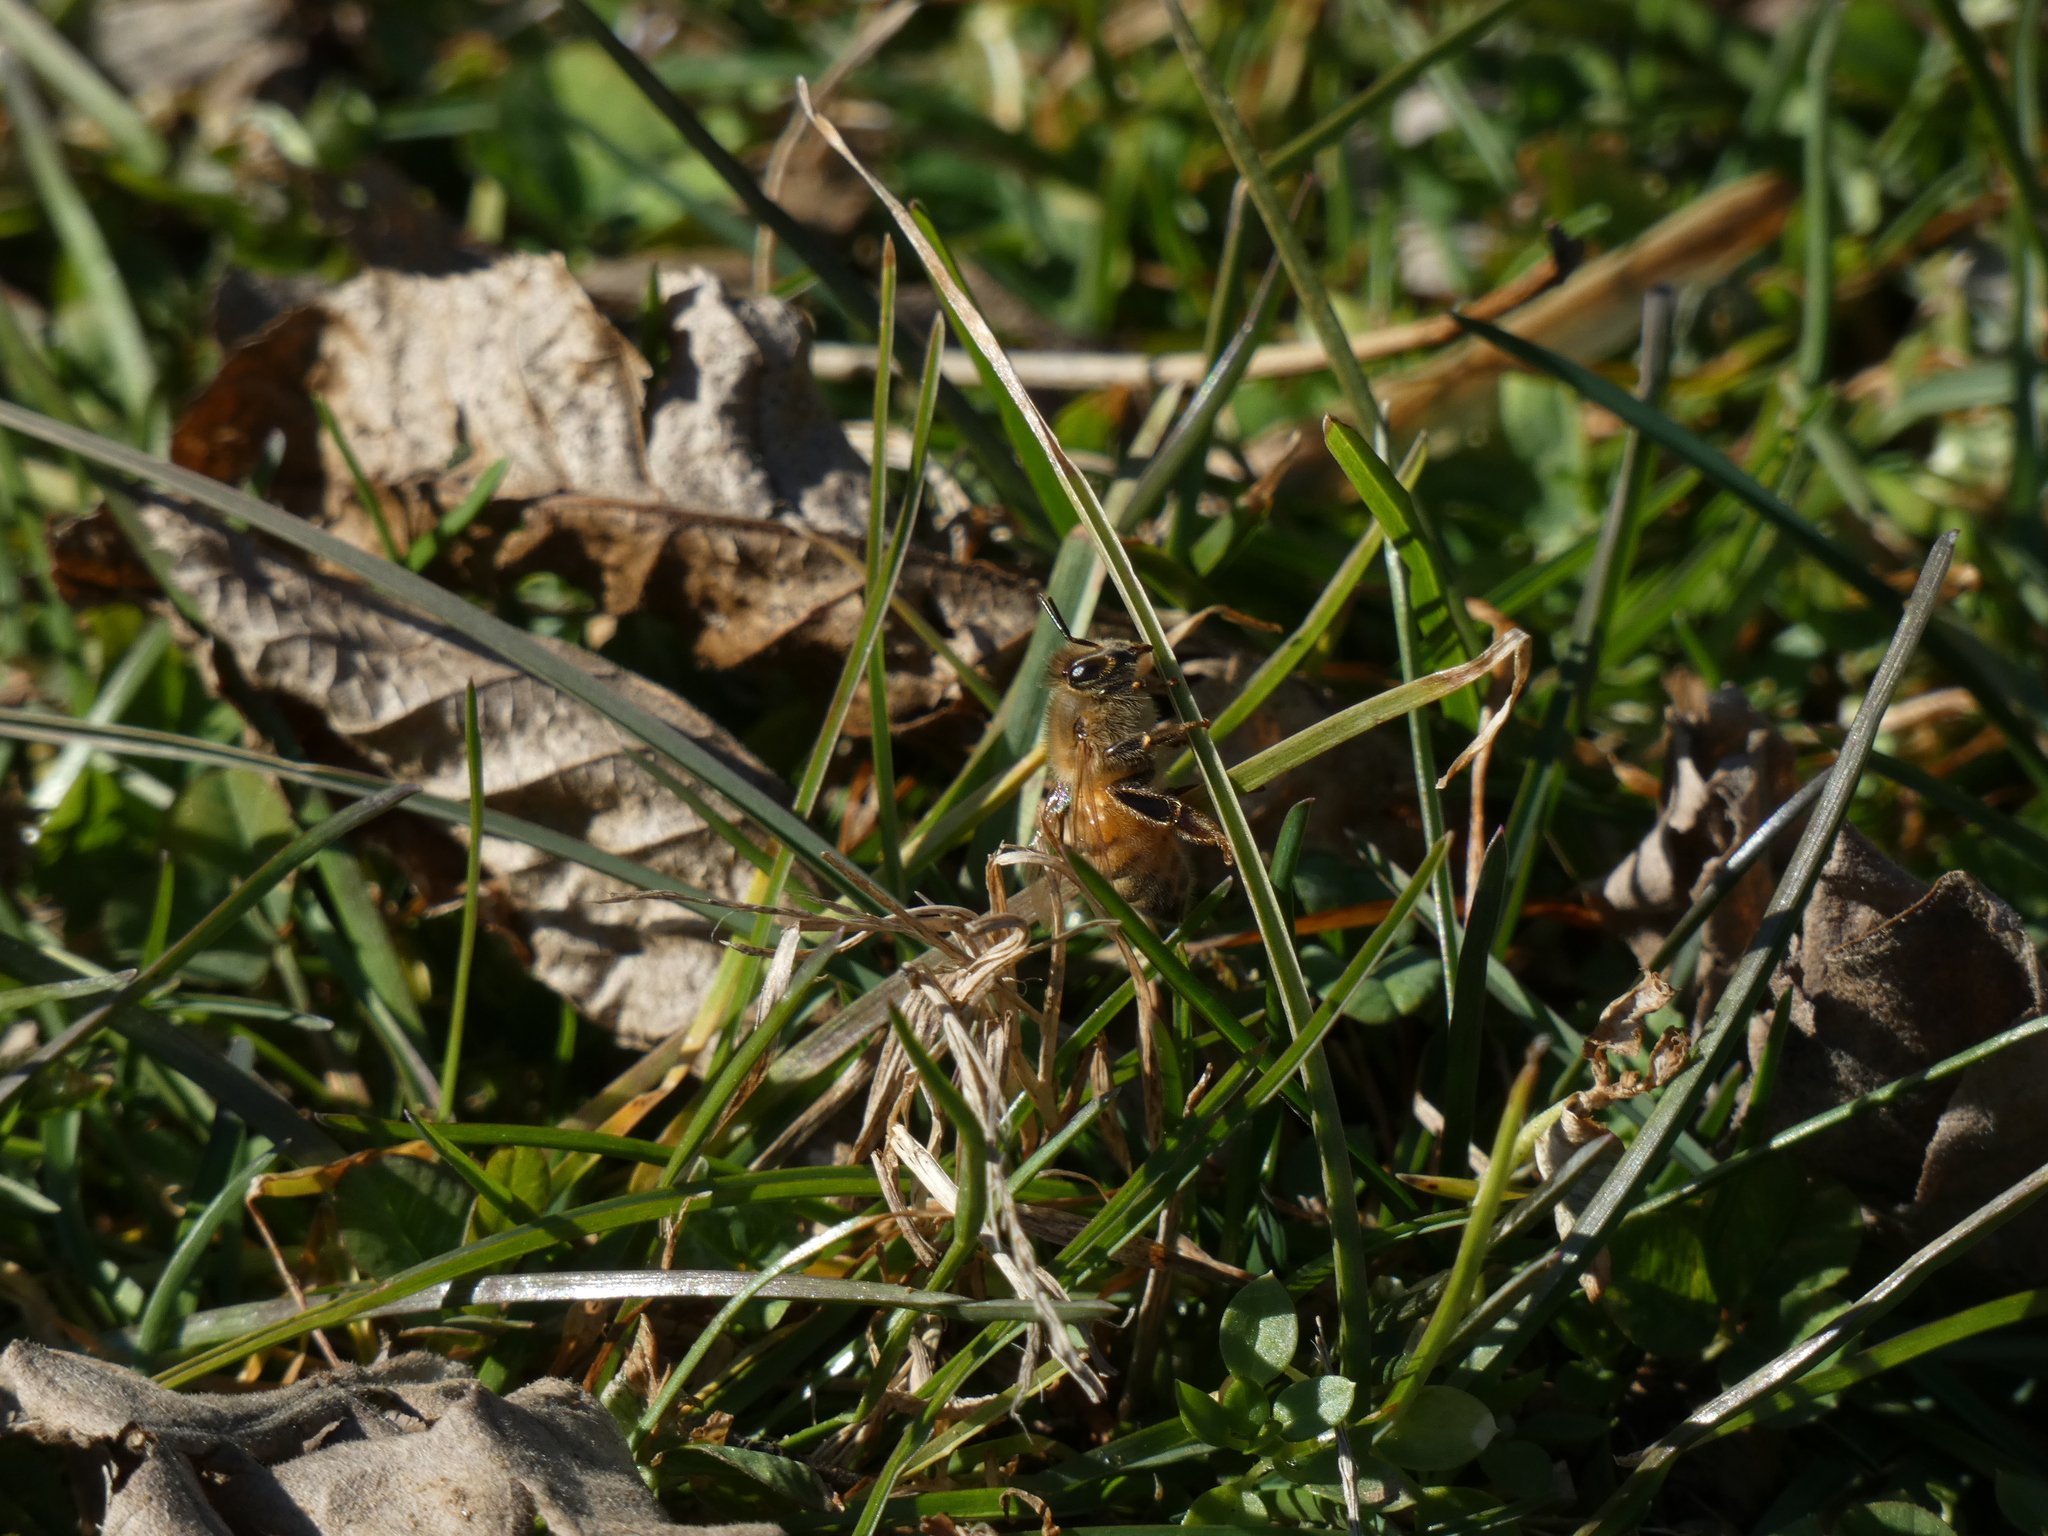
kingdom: Animalia
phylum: Arthropoda
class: Insecta
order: Hymenoptera
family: Apidae
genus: Apis
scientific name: Apis mellifera
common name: Honey bee
